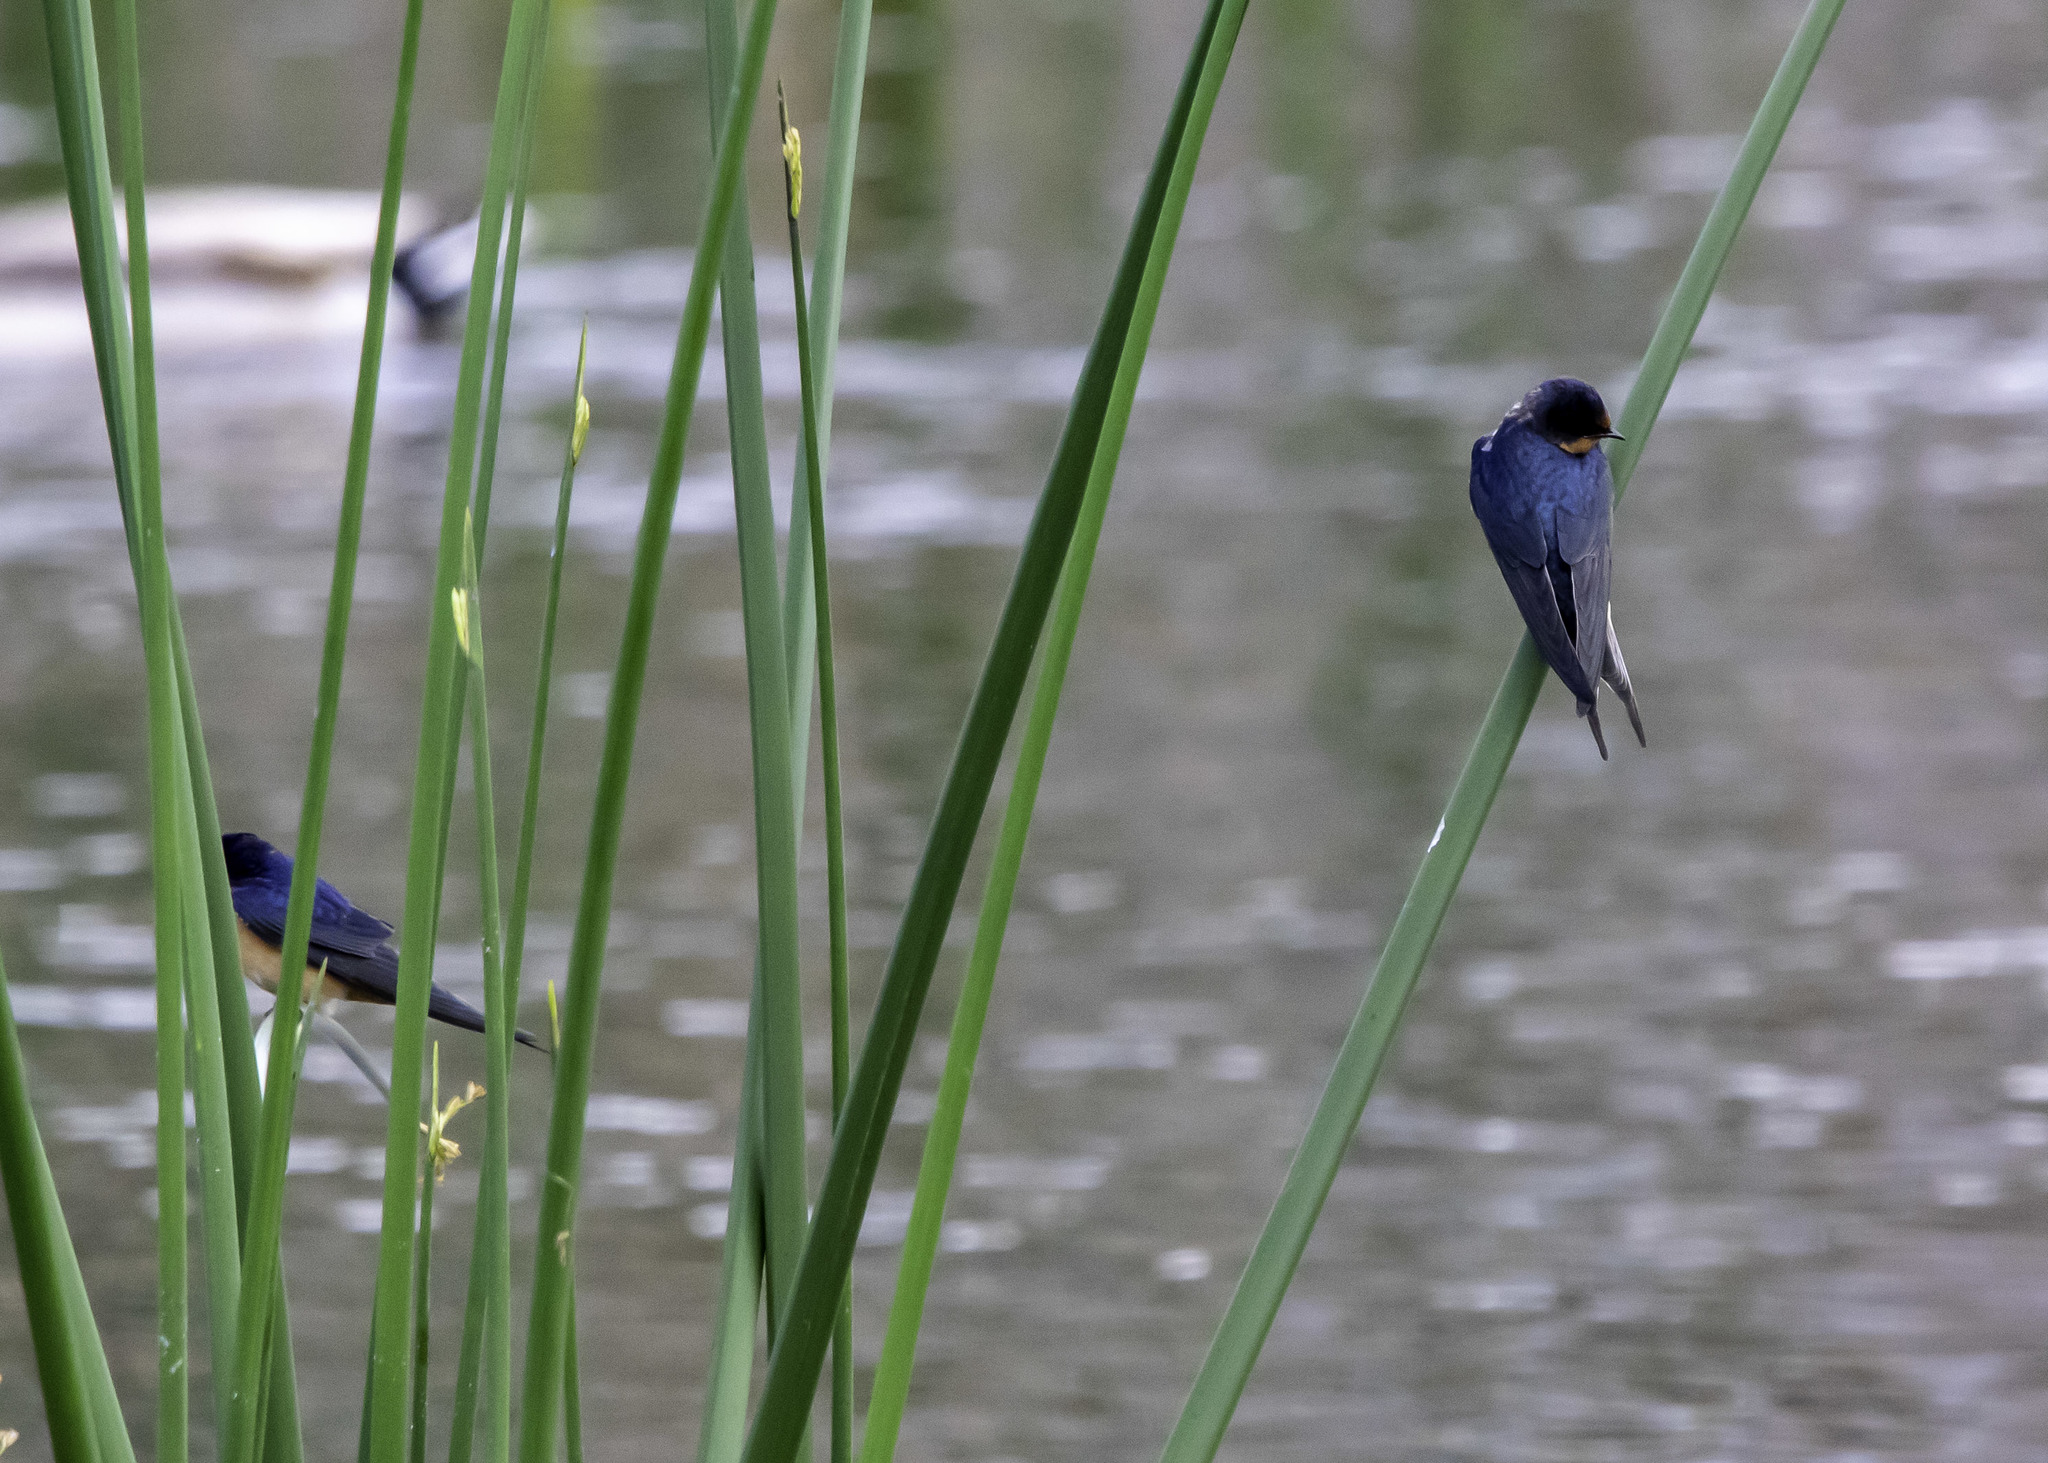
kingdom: Animalia
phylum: Chordata
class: Aves
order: Passeriformes
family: Hirundinidae
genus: Hirundo
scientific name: Hirundo rustica
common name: Barn swallow
